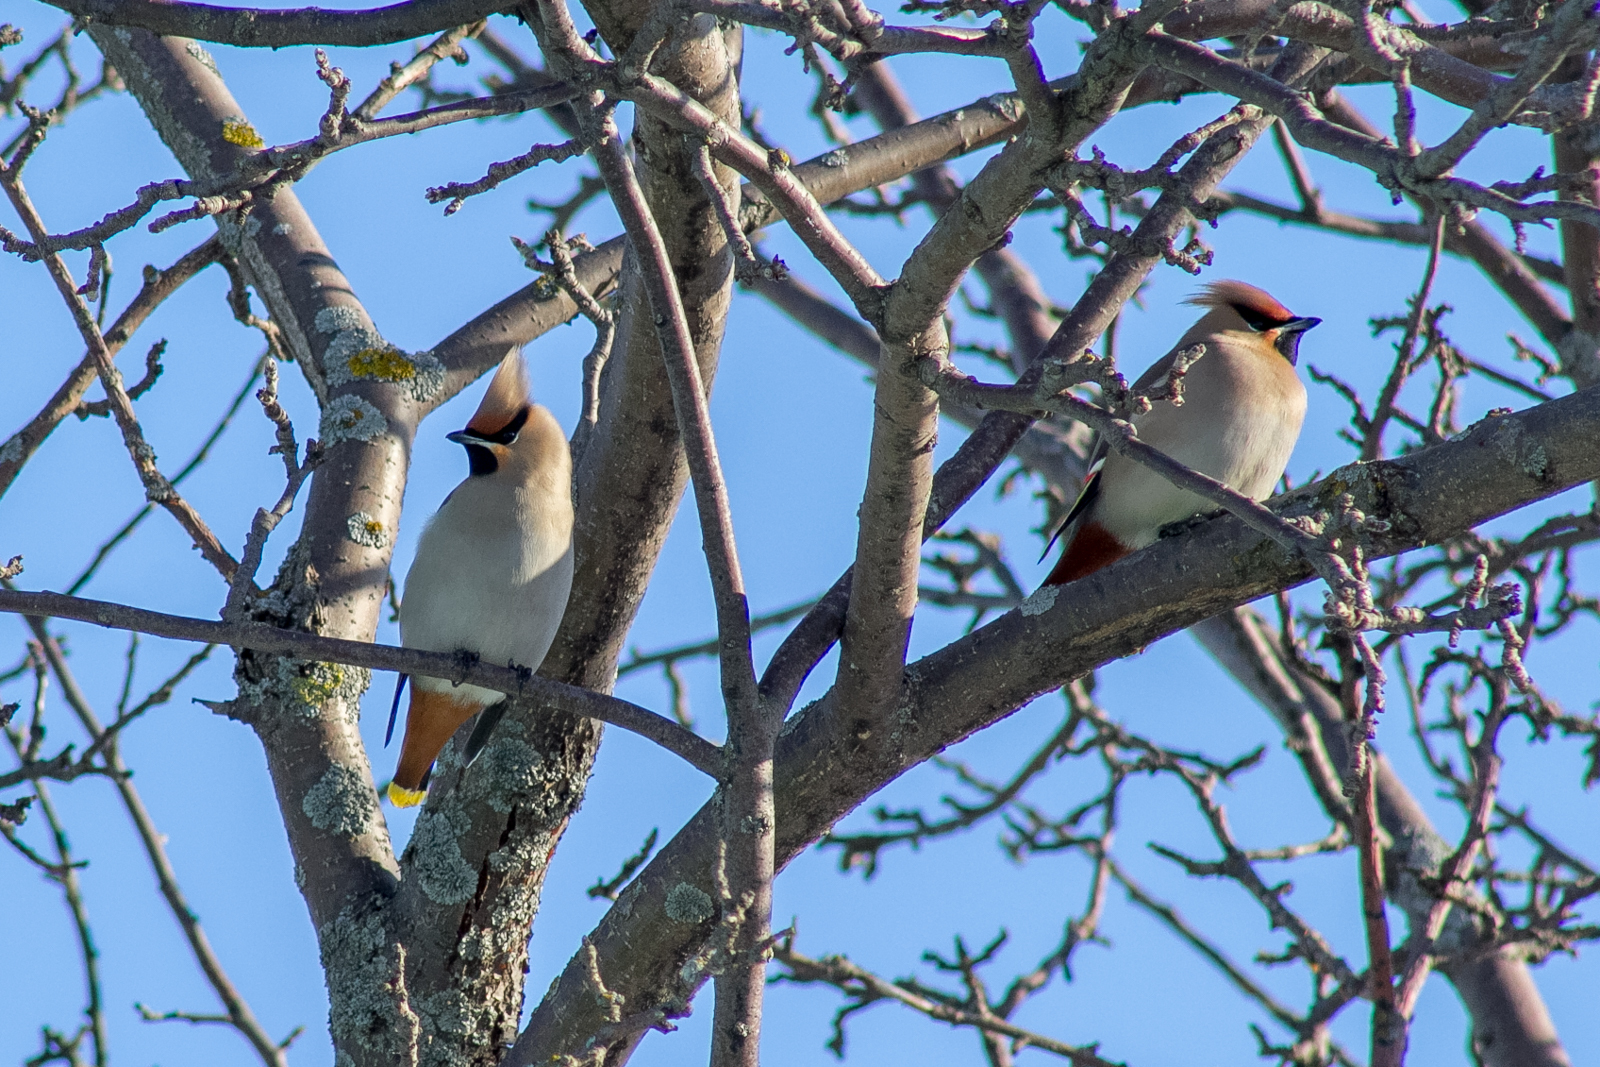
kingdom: Animalia
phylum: Chordata
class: Aves
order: Passeriformes
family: Bombycillidae
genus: Bombycilla
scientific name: Bombycilla garrulus
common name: Bohemian waxwing
